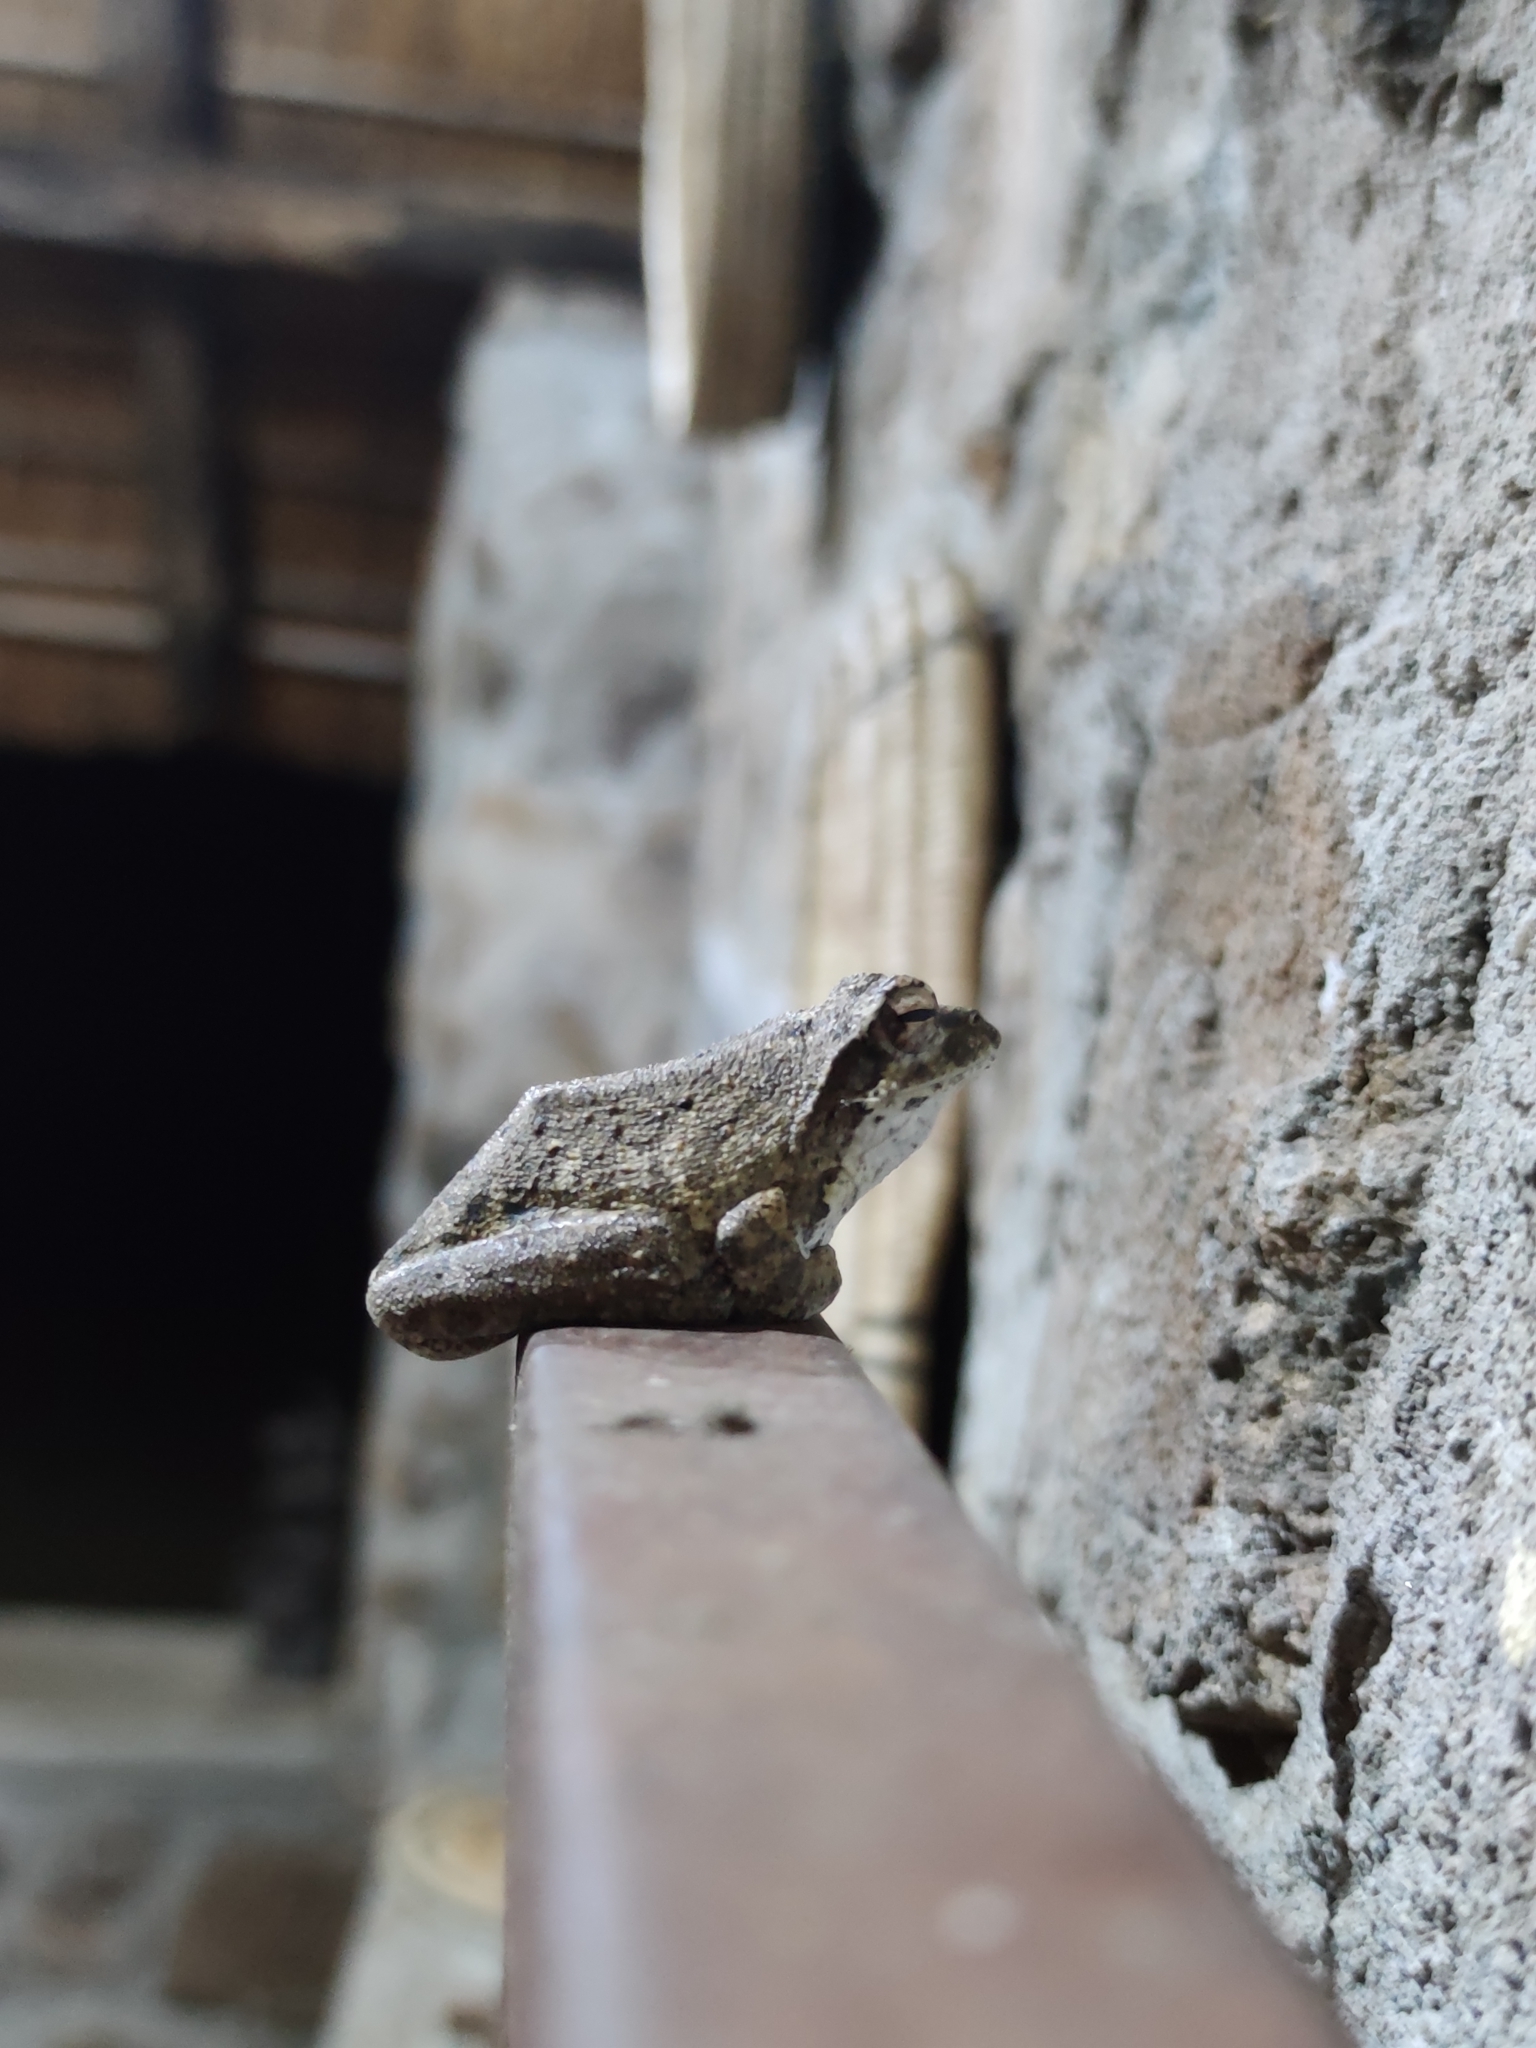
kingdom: Animalia
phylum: Chordata
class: Amphibia
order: Anura
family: Rhacophoridae
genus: Chiromantis
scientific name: Chiromantis xerampelina
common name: African gray treefrog
